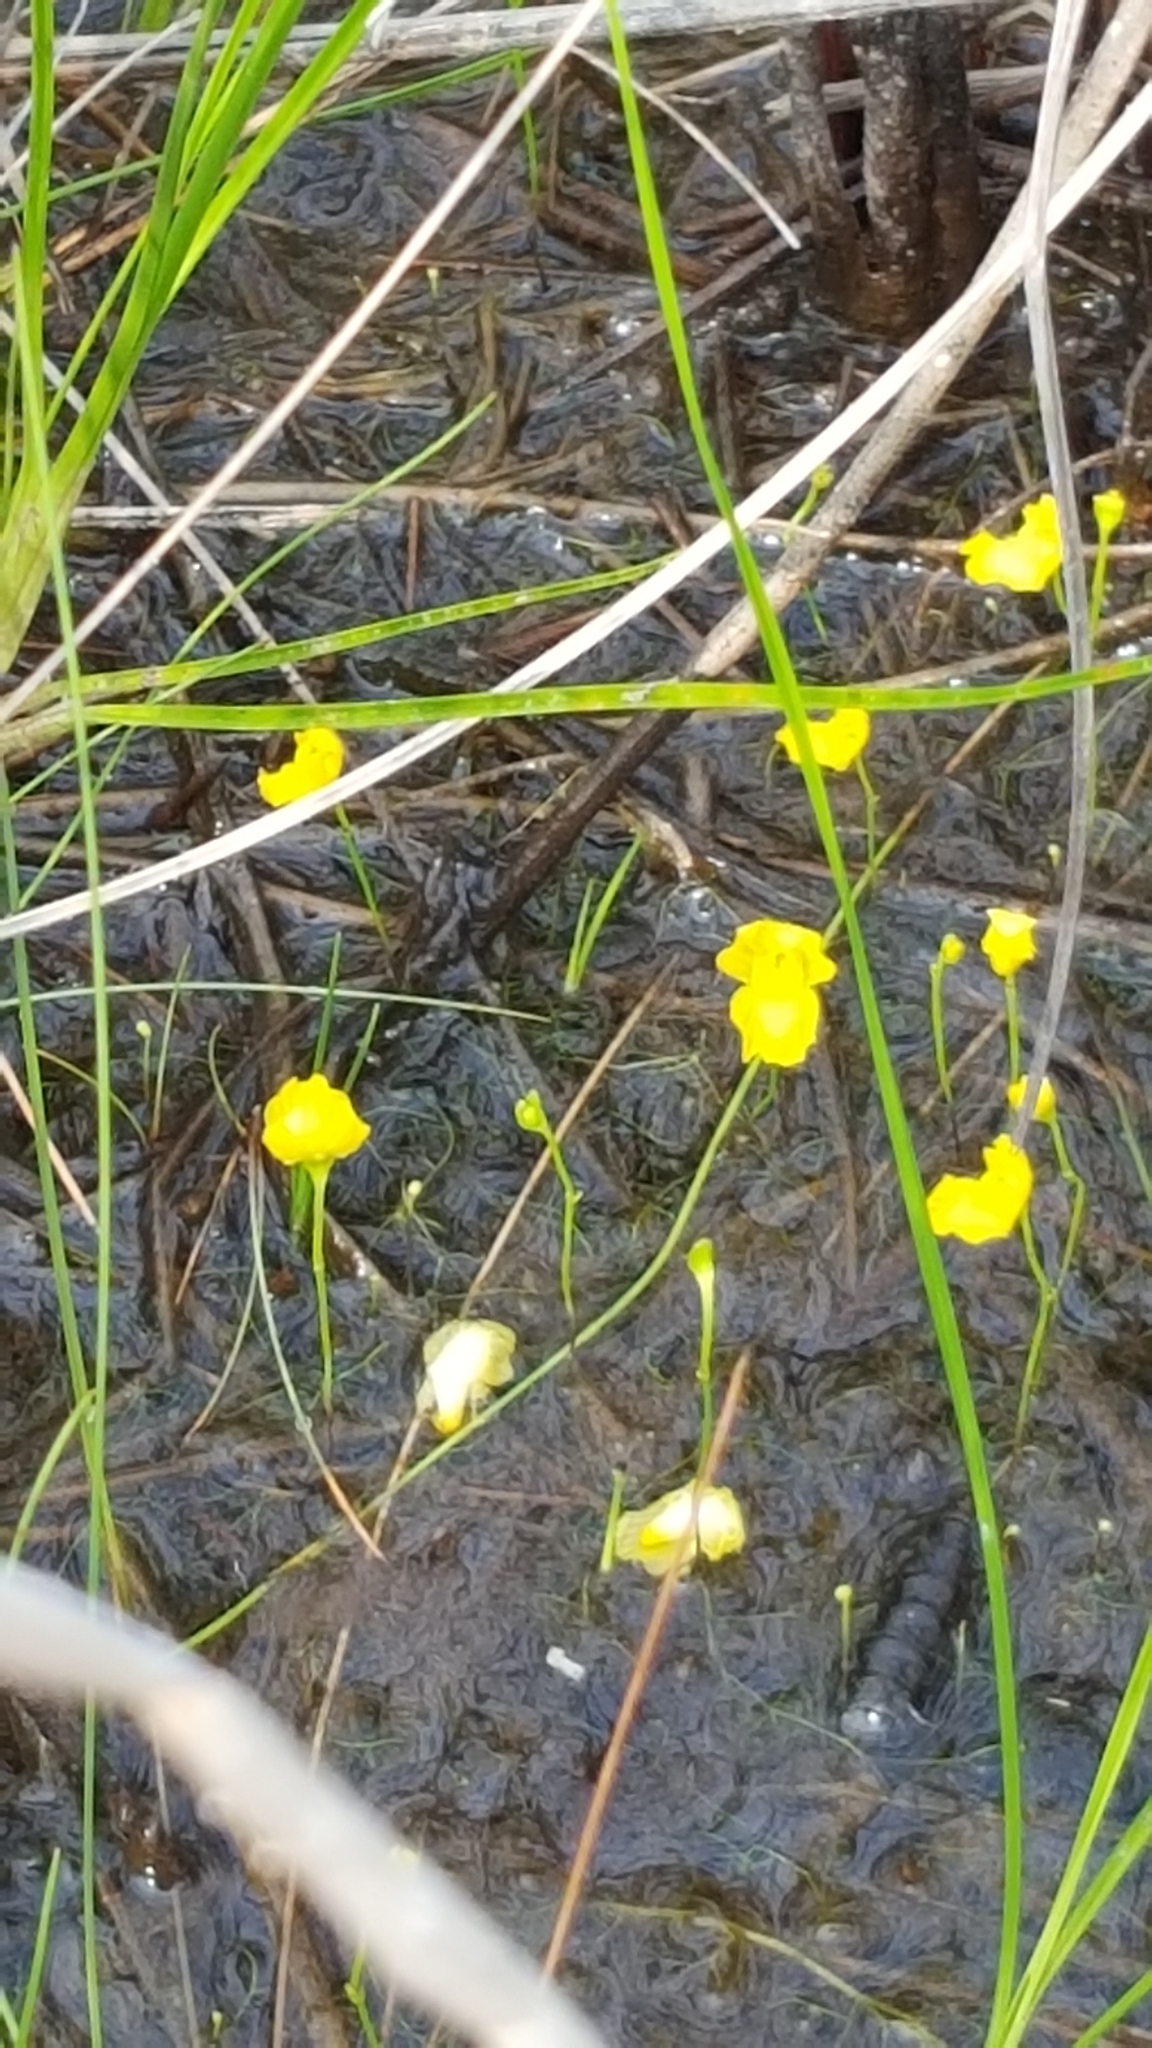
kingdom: Plantae
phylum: Tracheophyta
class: Magnoliopsida
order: Lamiales
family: Lentibulariaceae
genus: Utricularia
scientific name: Utricularia gibba
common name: Humped bladderwort
